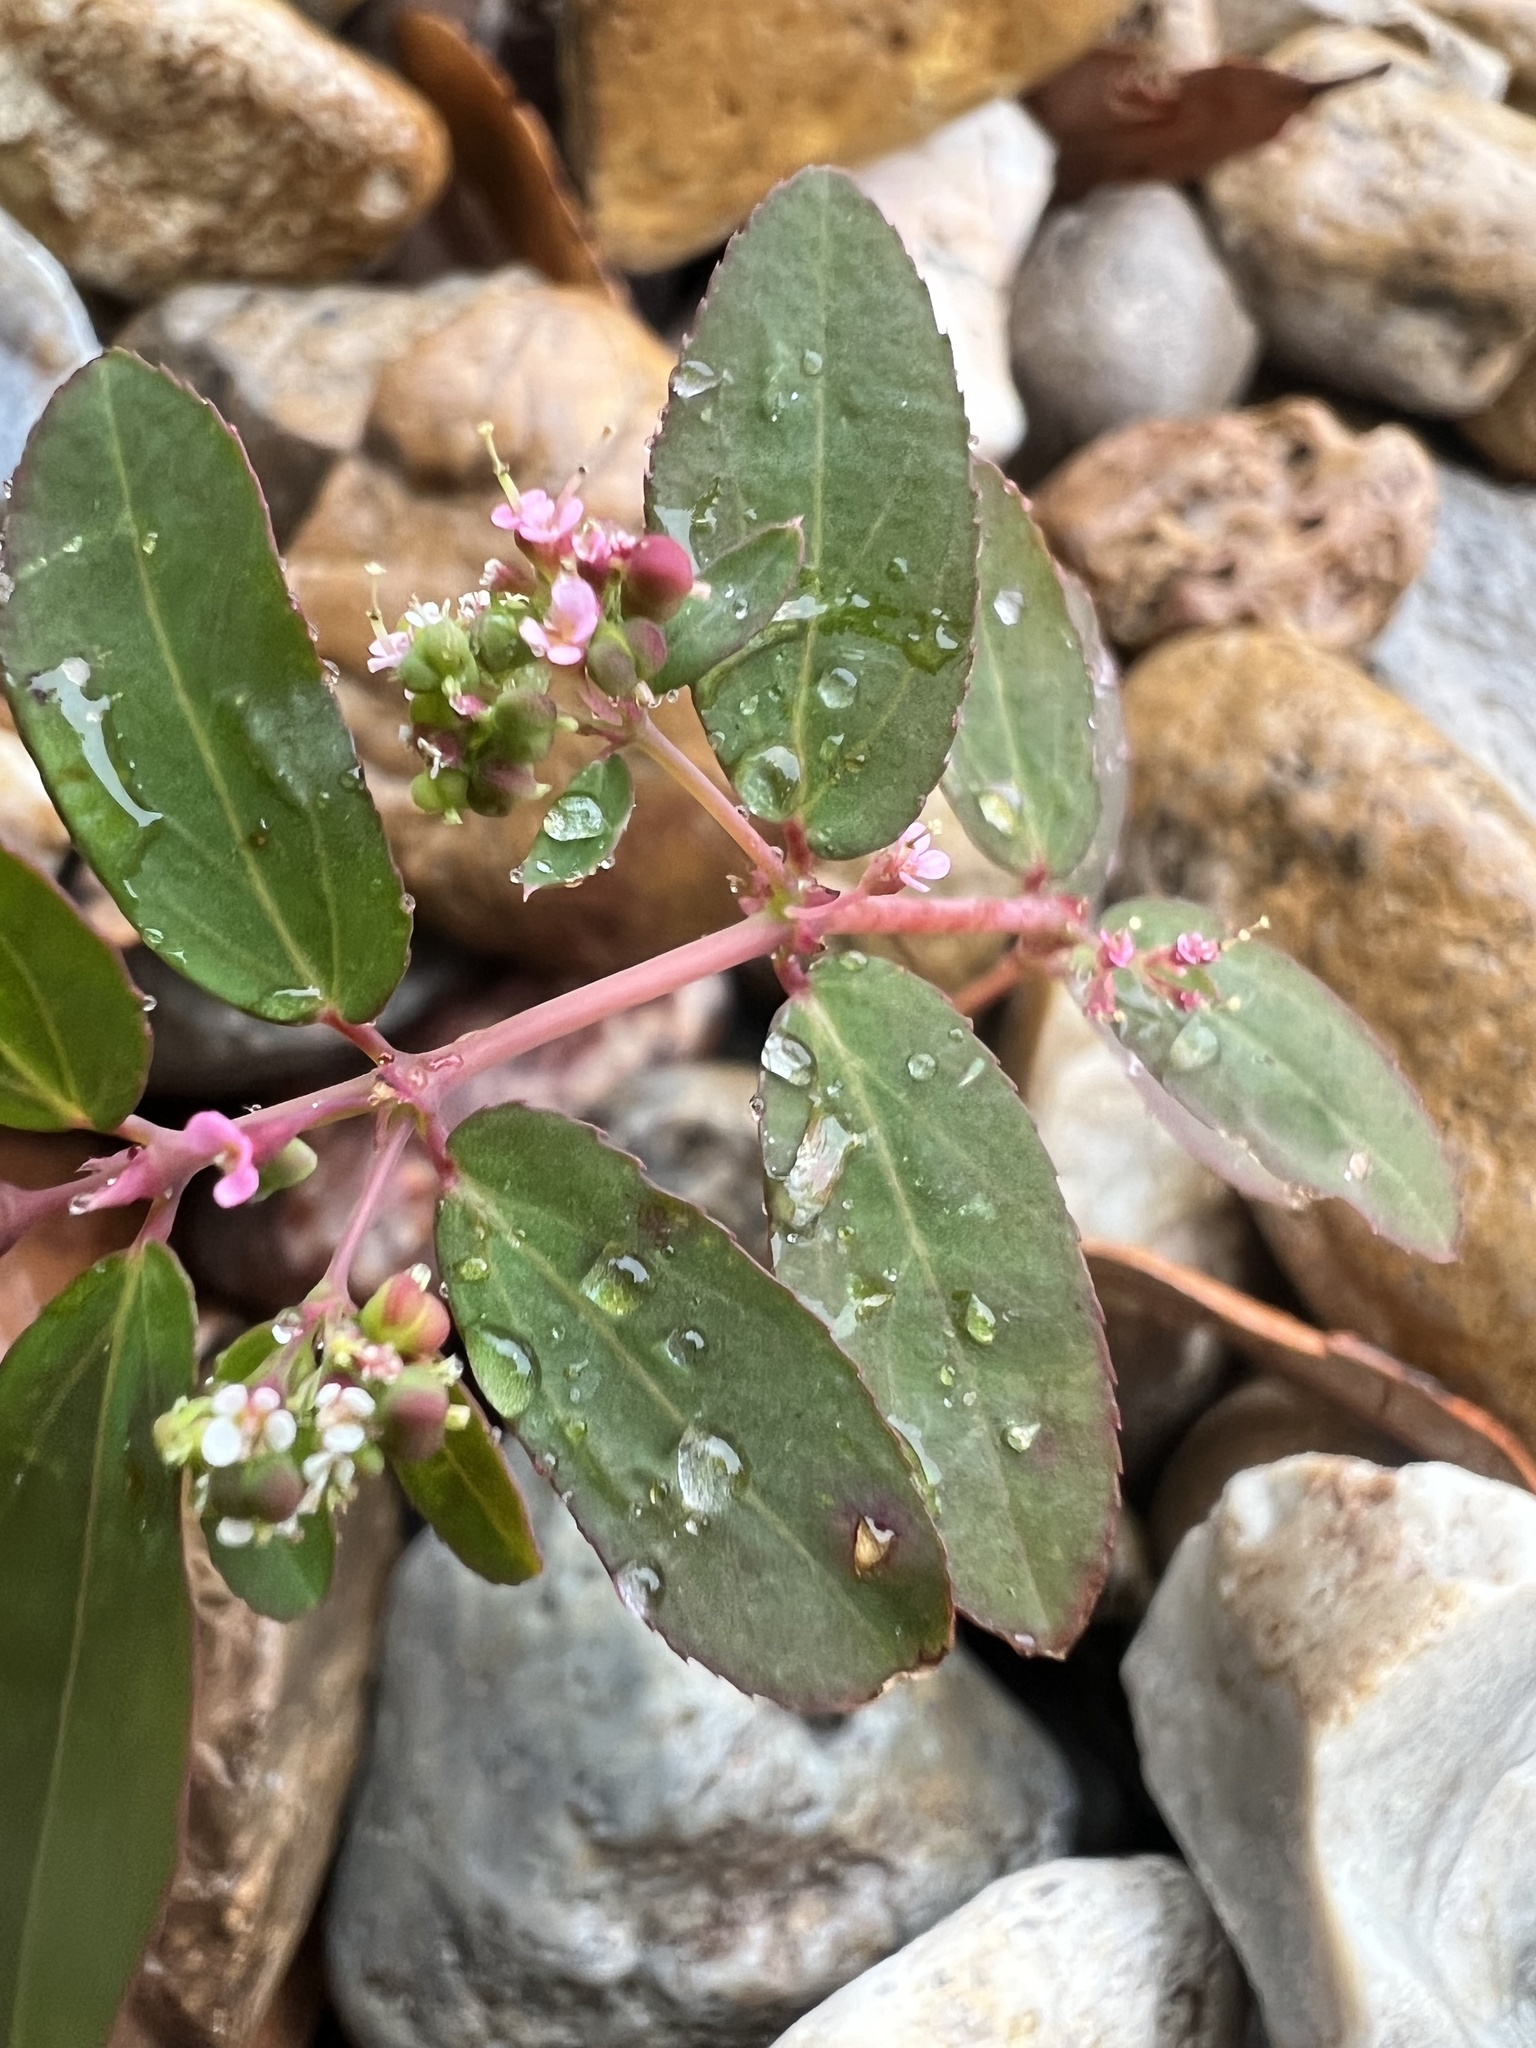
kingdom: Plantae
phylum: Tracheophyta
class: Magnoliopsida
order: Malpighiales
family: Euphorbiaceae
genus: Euphorbia
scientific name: Euphorbia hypericifolia
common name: Graceful sandmat
